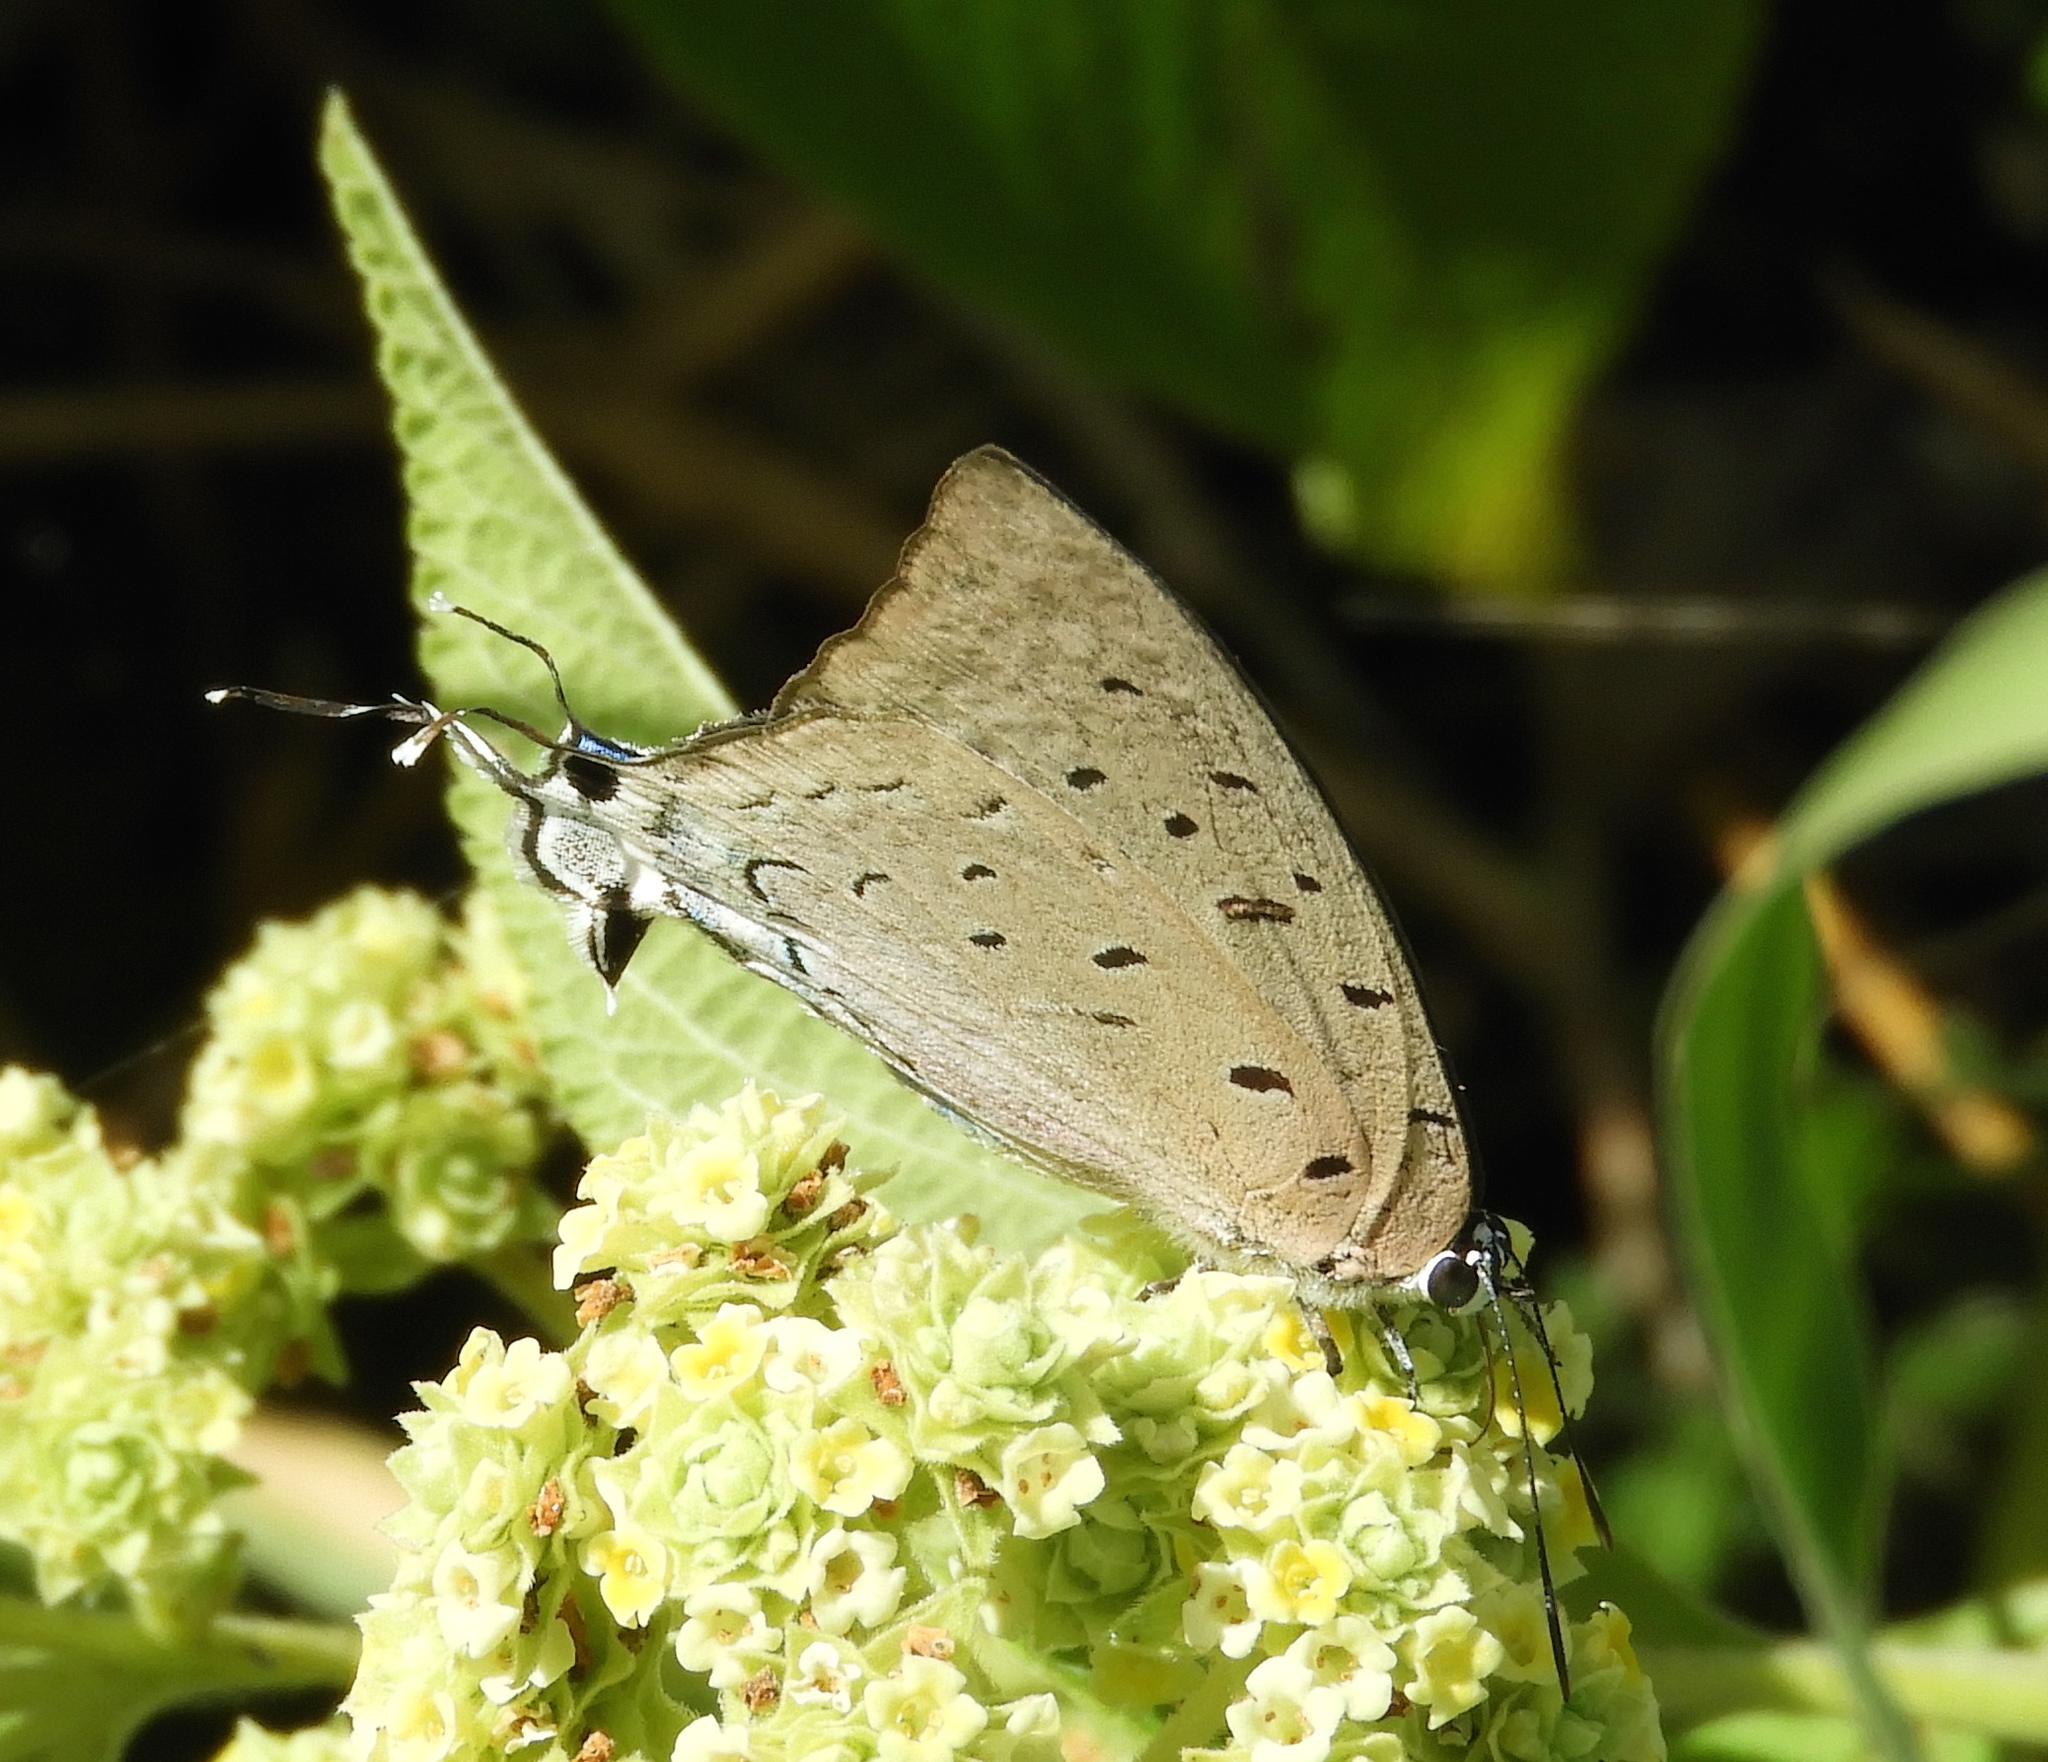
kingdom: Animalia
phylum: Arthropoda
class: Insecta
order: Lepidoptera
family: Lycaenidae
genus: Pseudolycaena
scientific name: Pseudolycaena damo
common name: Sky-blue hairstreak
